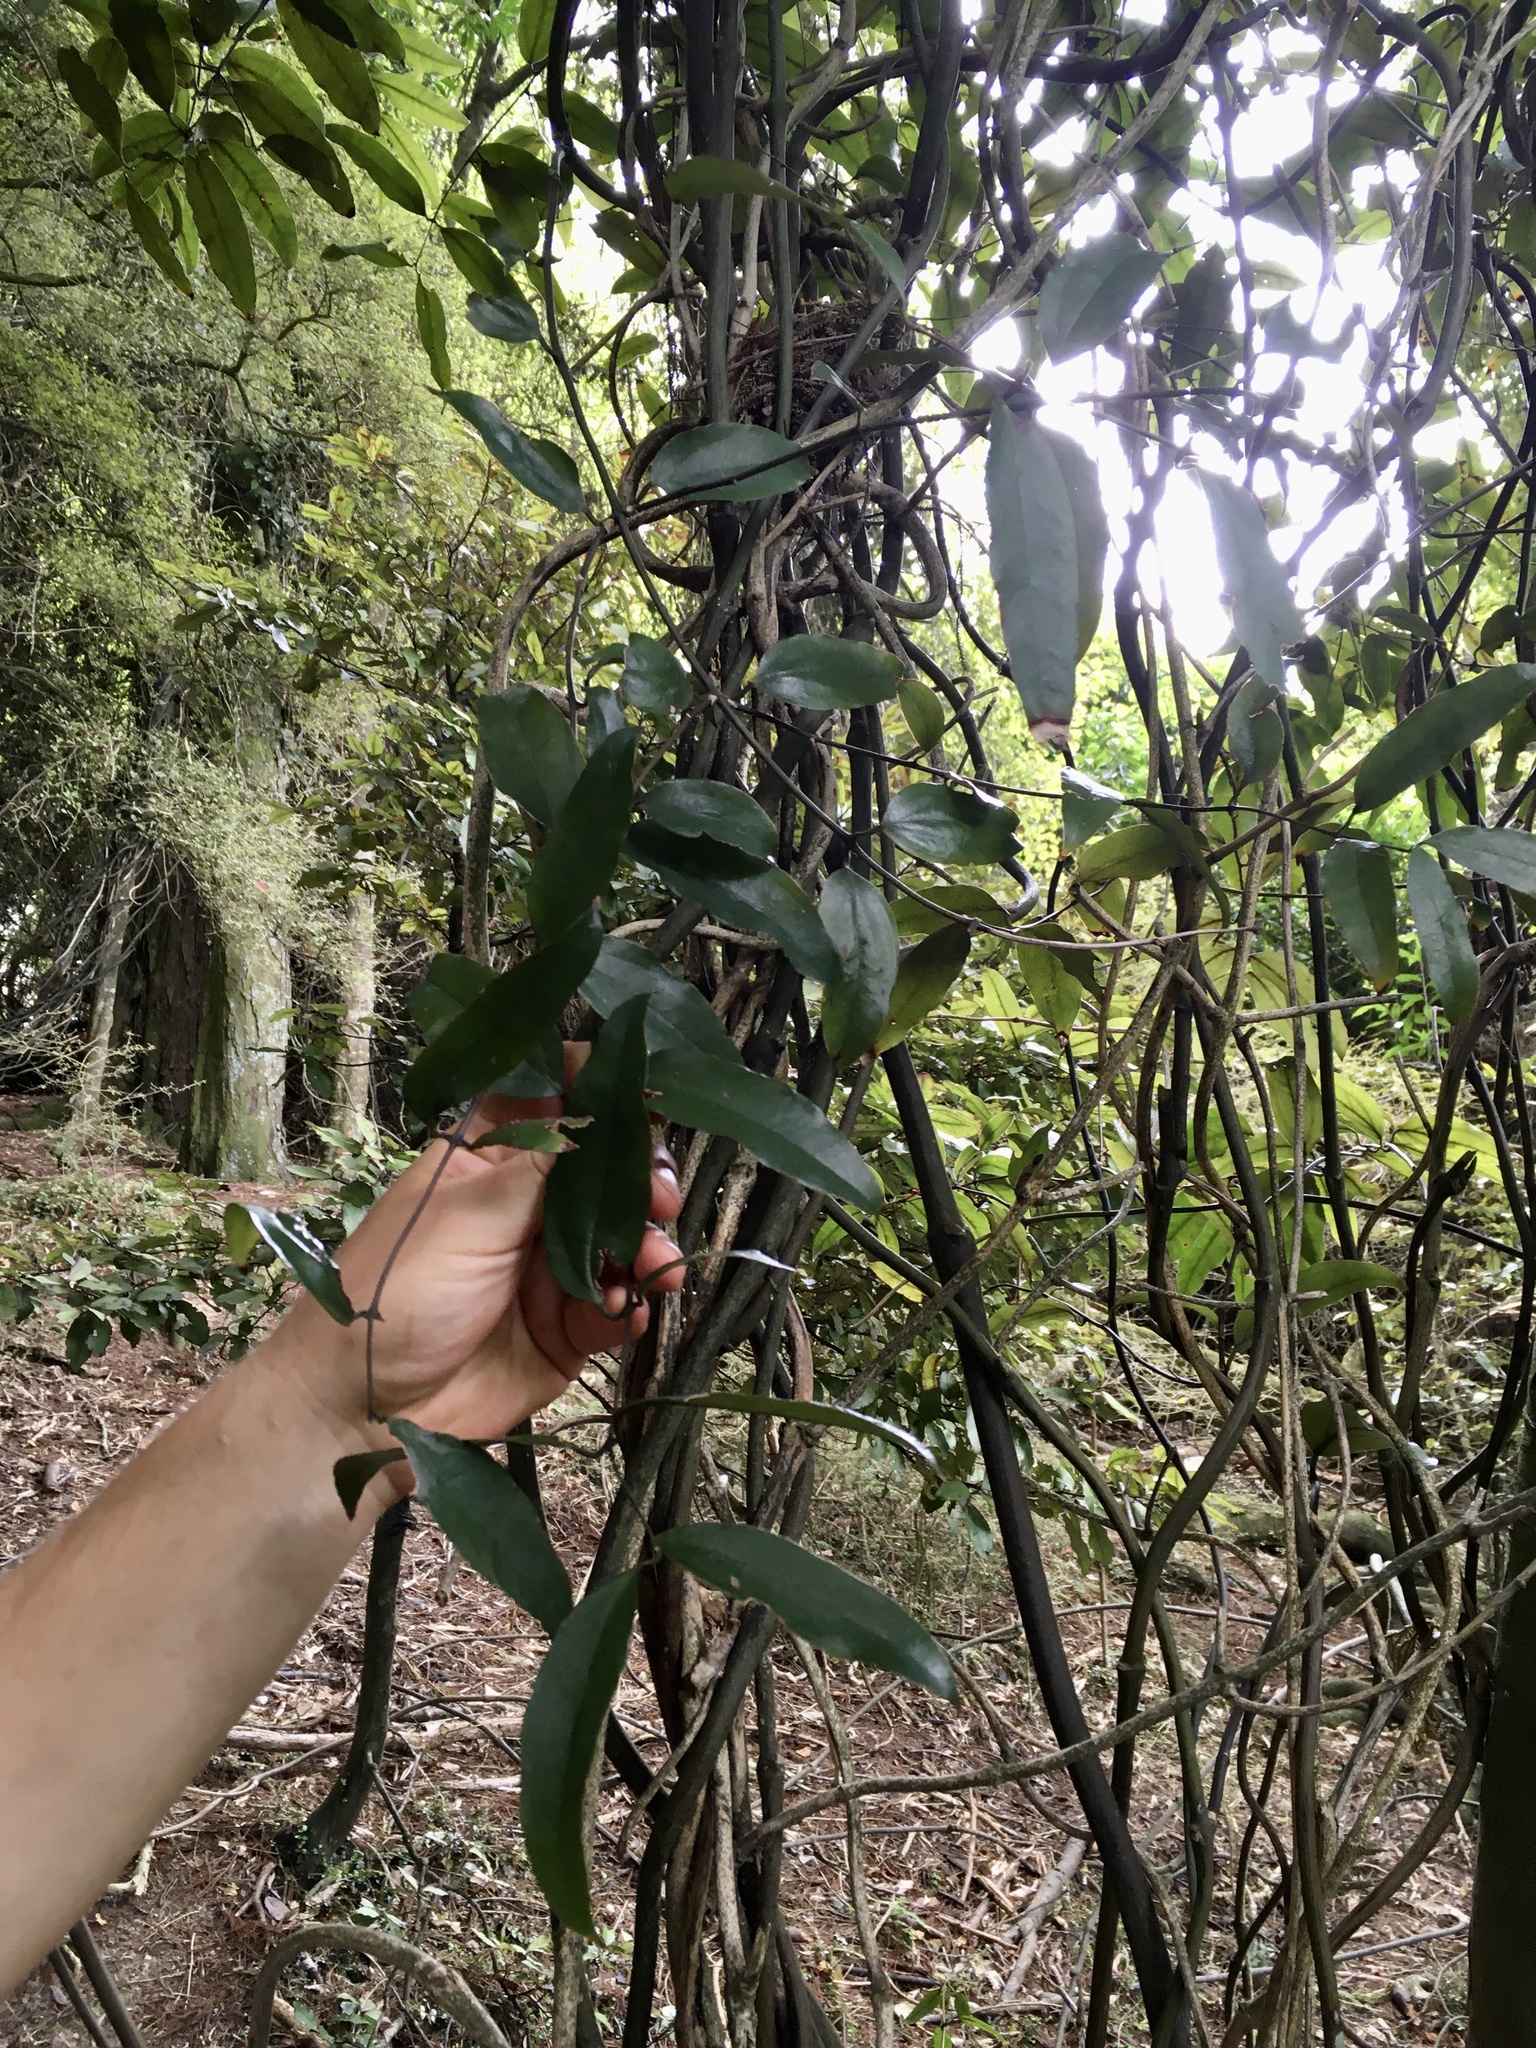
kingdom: Plantae
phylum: Tracheophyta
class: Magnoliopsida
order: Gentianales
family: Apocynaceae
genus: Parsonsia
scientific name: Parsonsia heterophylla
